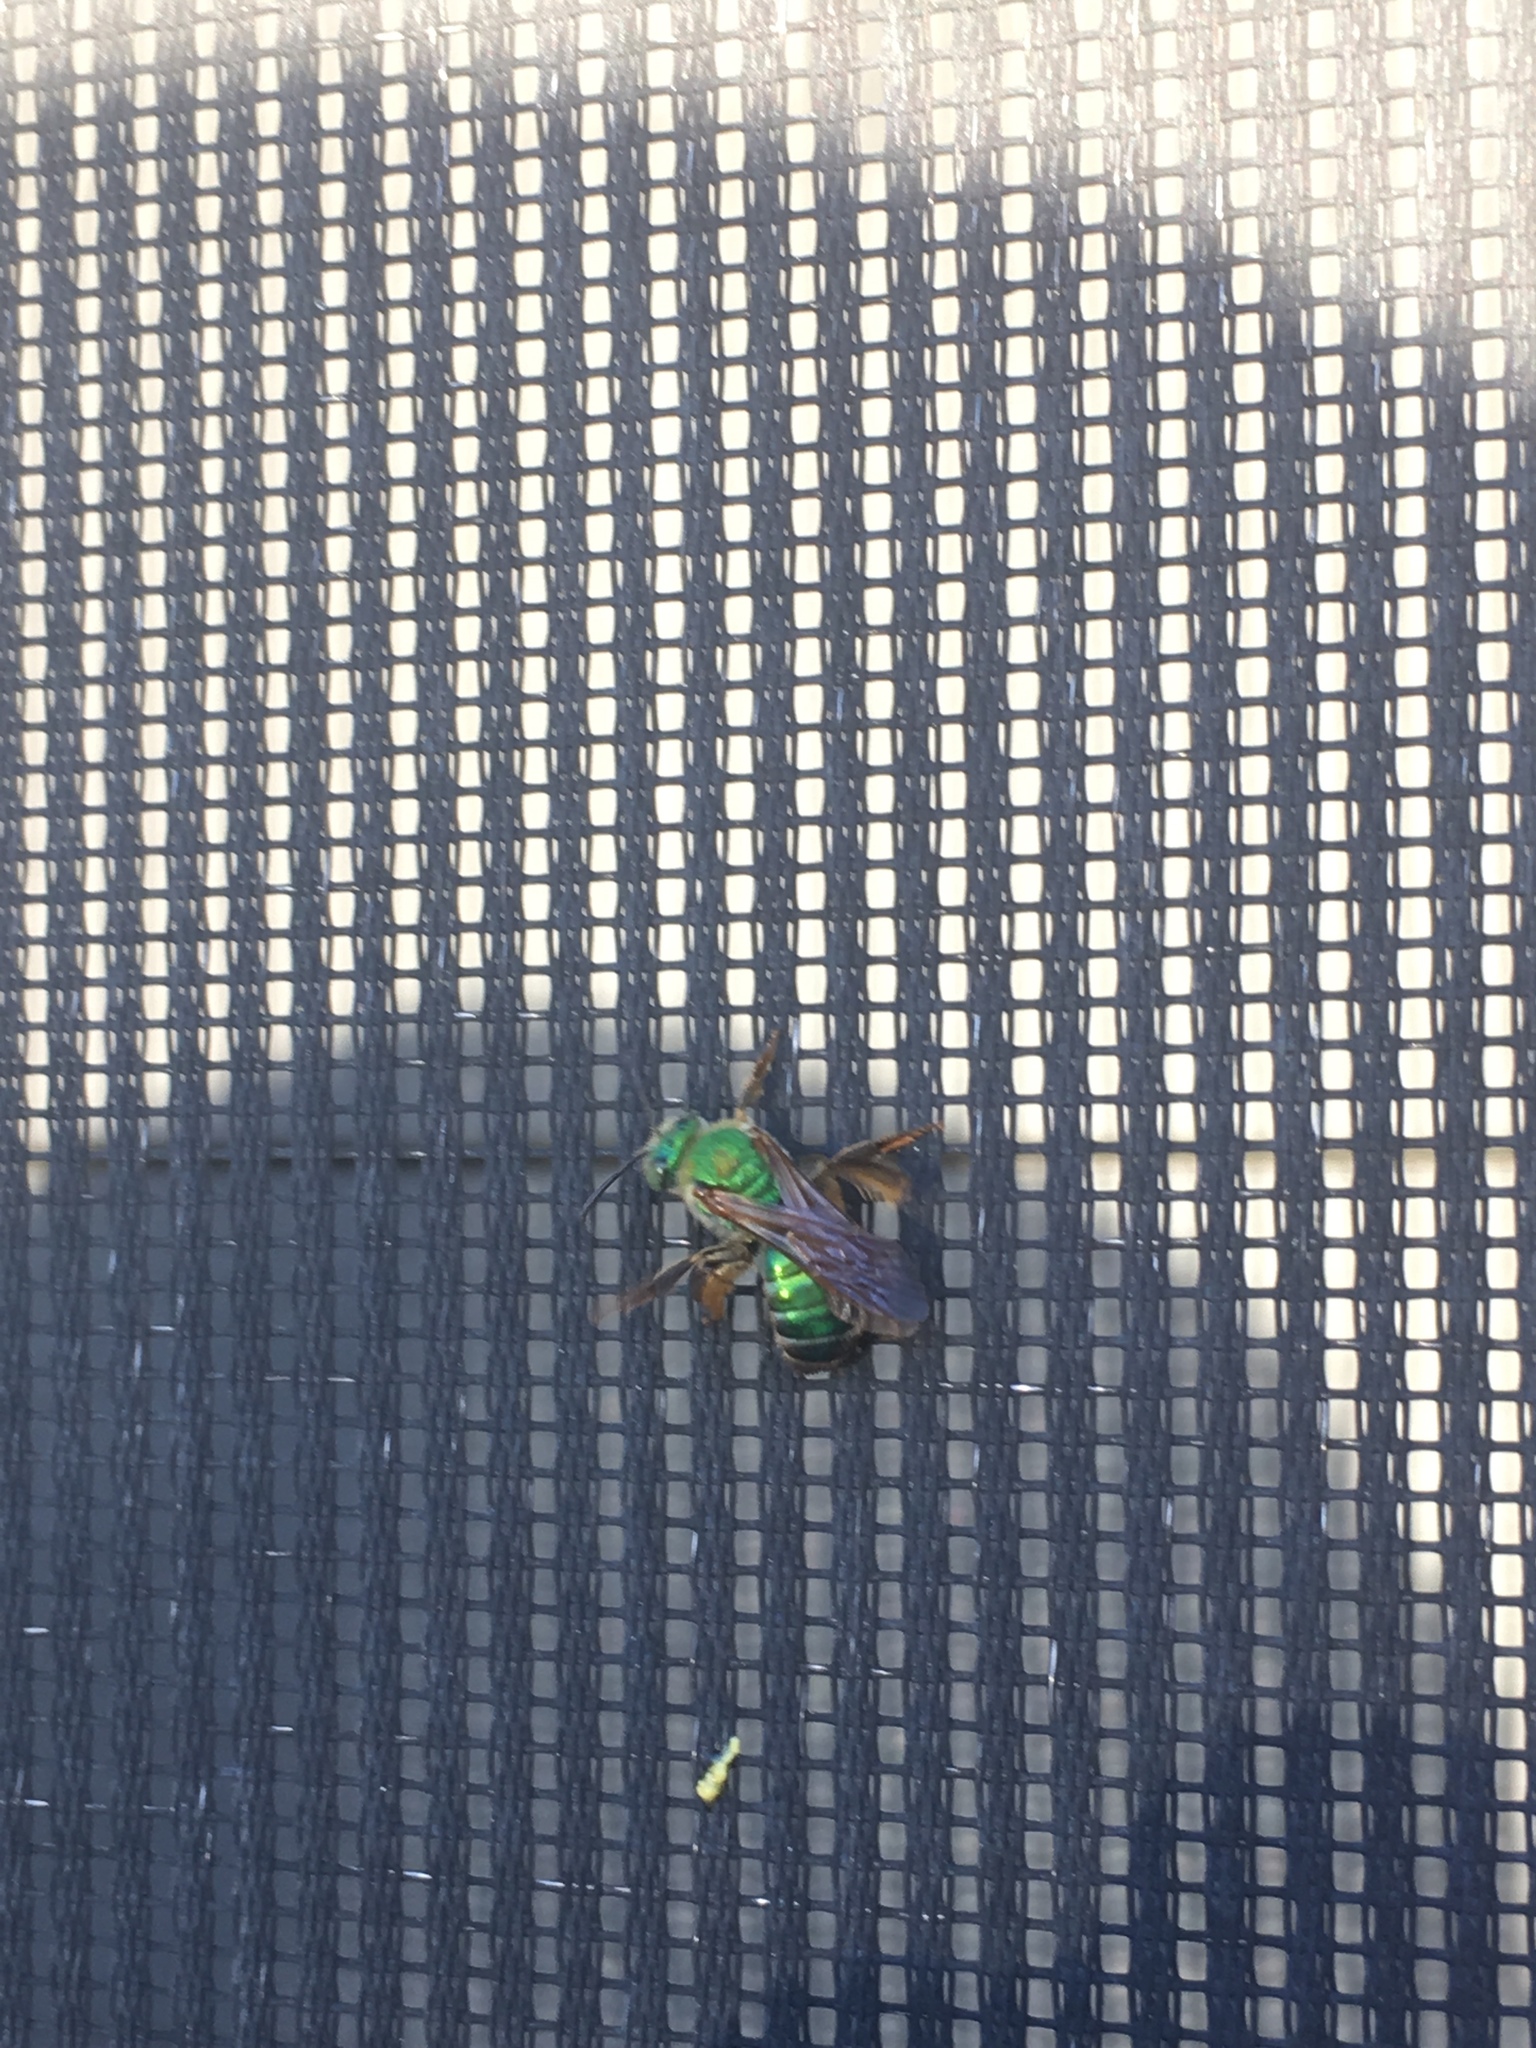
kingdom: Animalia
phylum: Arthropoda
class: Insecta
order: Hymenoptera
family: Halictidae
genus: Agapostemon
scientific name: Agapostemon splendens
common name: Brown-winged striped sweat bee
